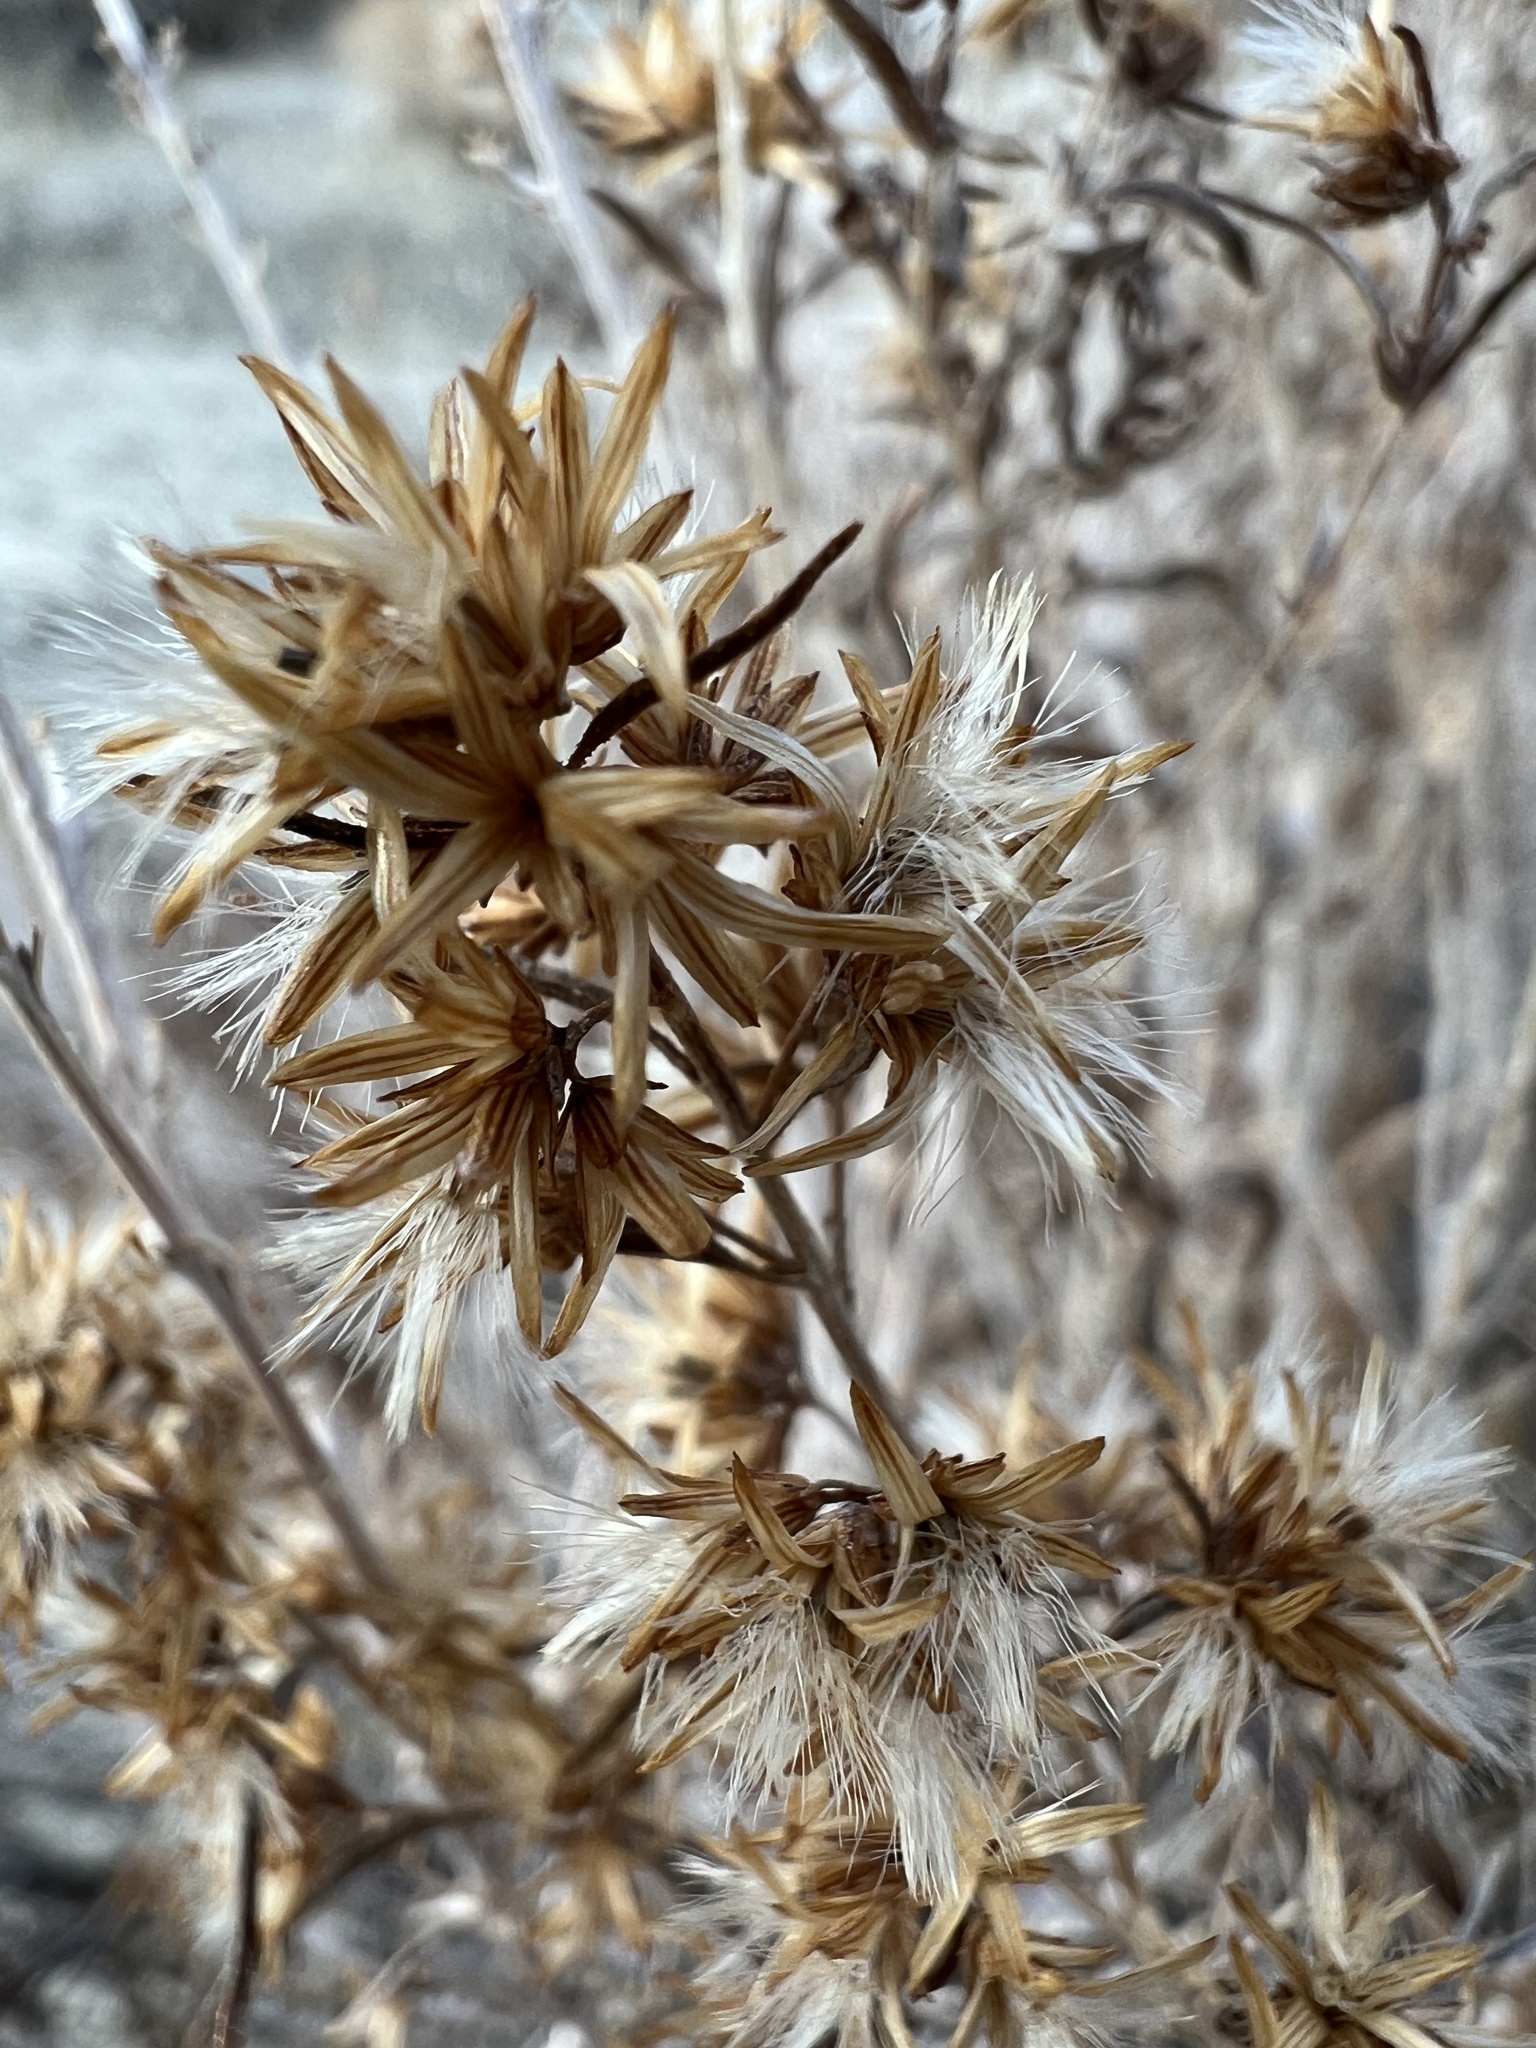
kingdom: Plantae
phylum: Tracheophyta
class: Magnoliopsida
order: Asterales
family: Asteraceae
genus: Brickellia
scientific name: Brickellia longifolia
